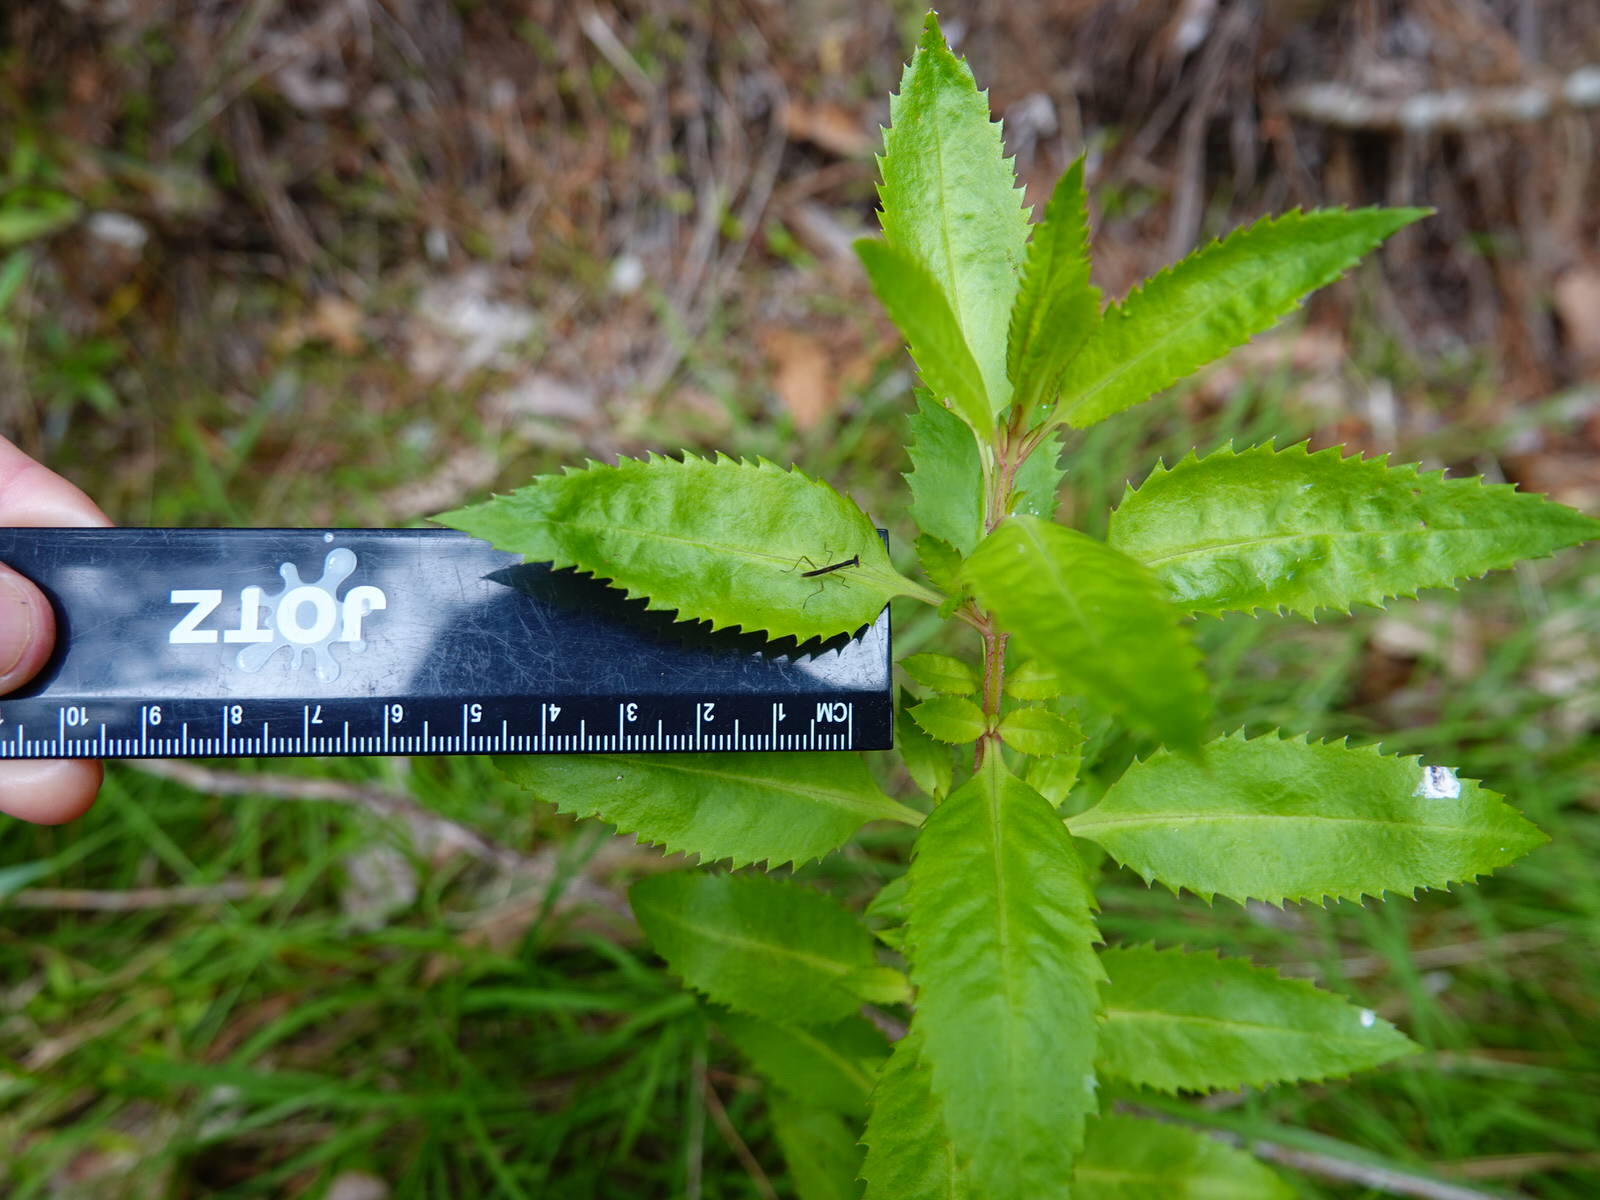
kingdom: Animalia
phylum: Arthropoda
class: Insecta
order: Mantodea
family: Mantidae
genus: Orthodera
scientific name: Orthodera novaezealandiae
